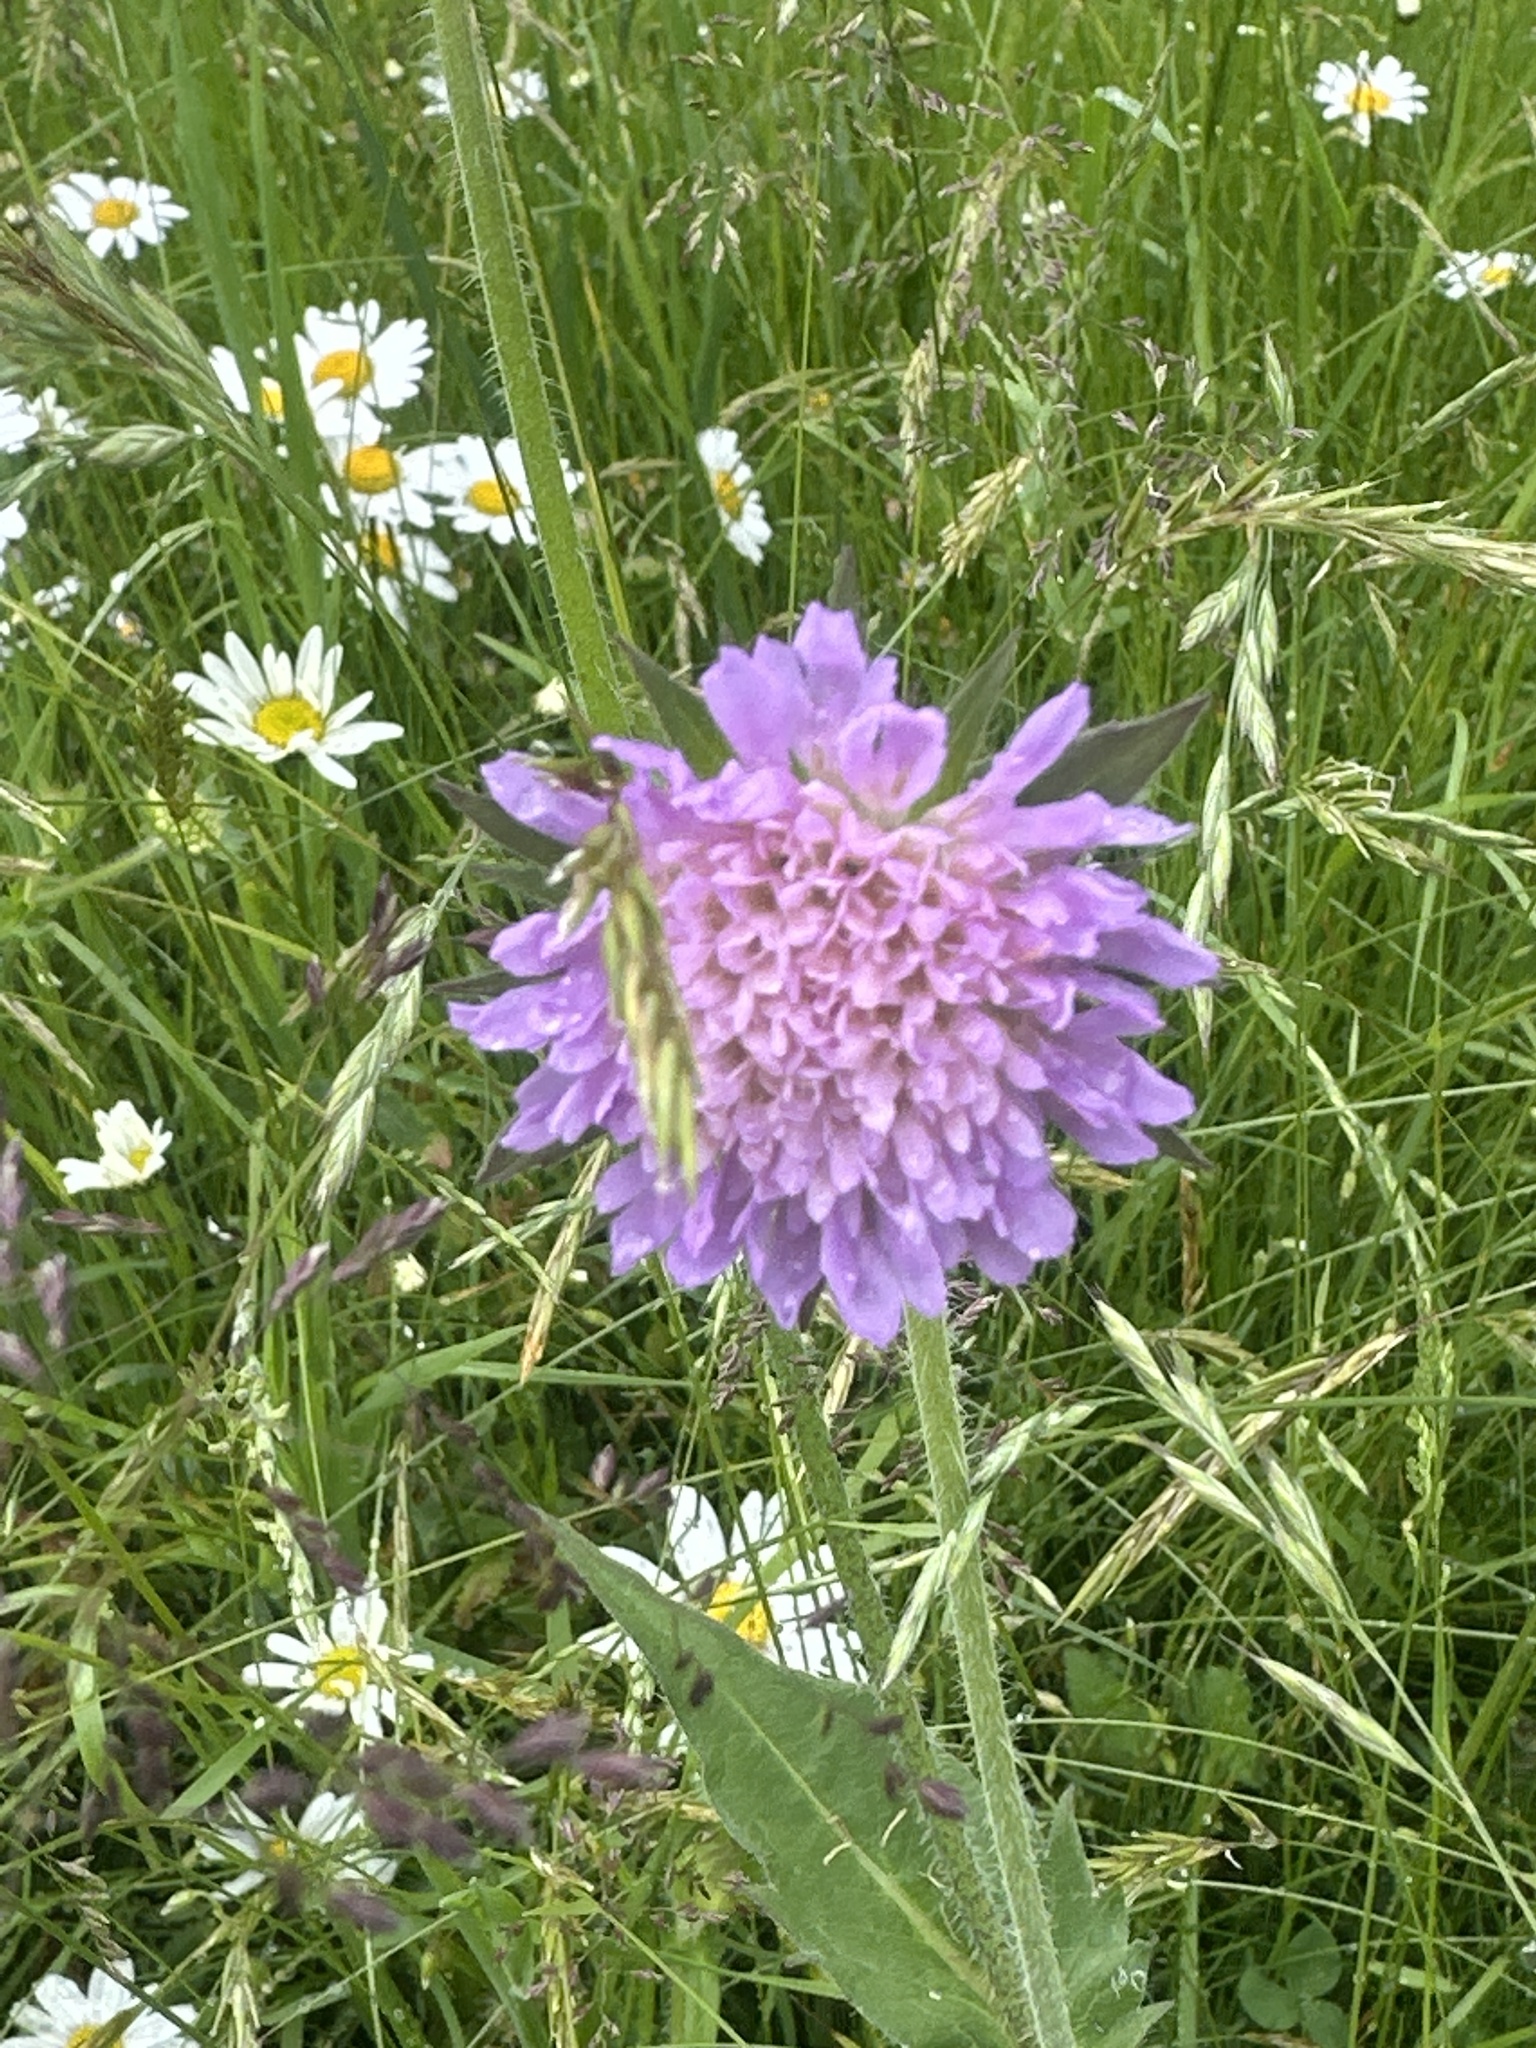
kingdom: Plantae
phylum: Tracheophyta
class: Magnoliopsida
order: Dipsacales
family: Caprifoliaceae
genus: Knautia
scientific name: Knautia arvensis
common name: Field scabiosa
